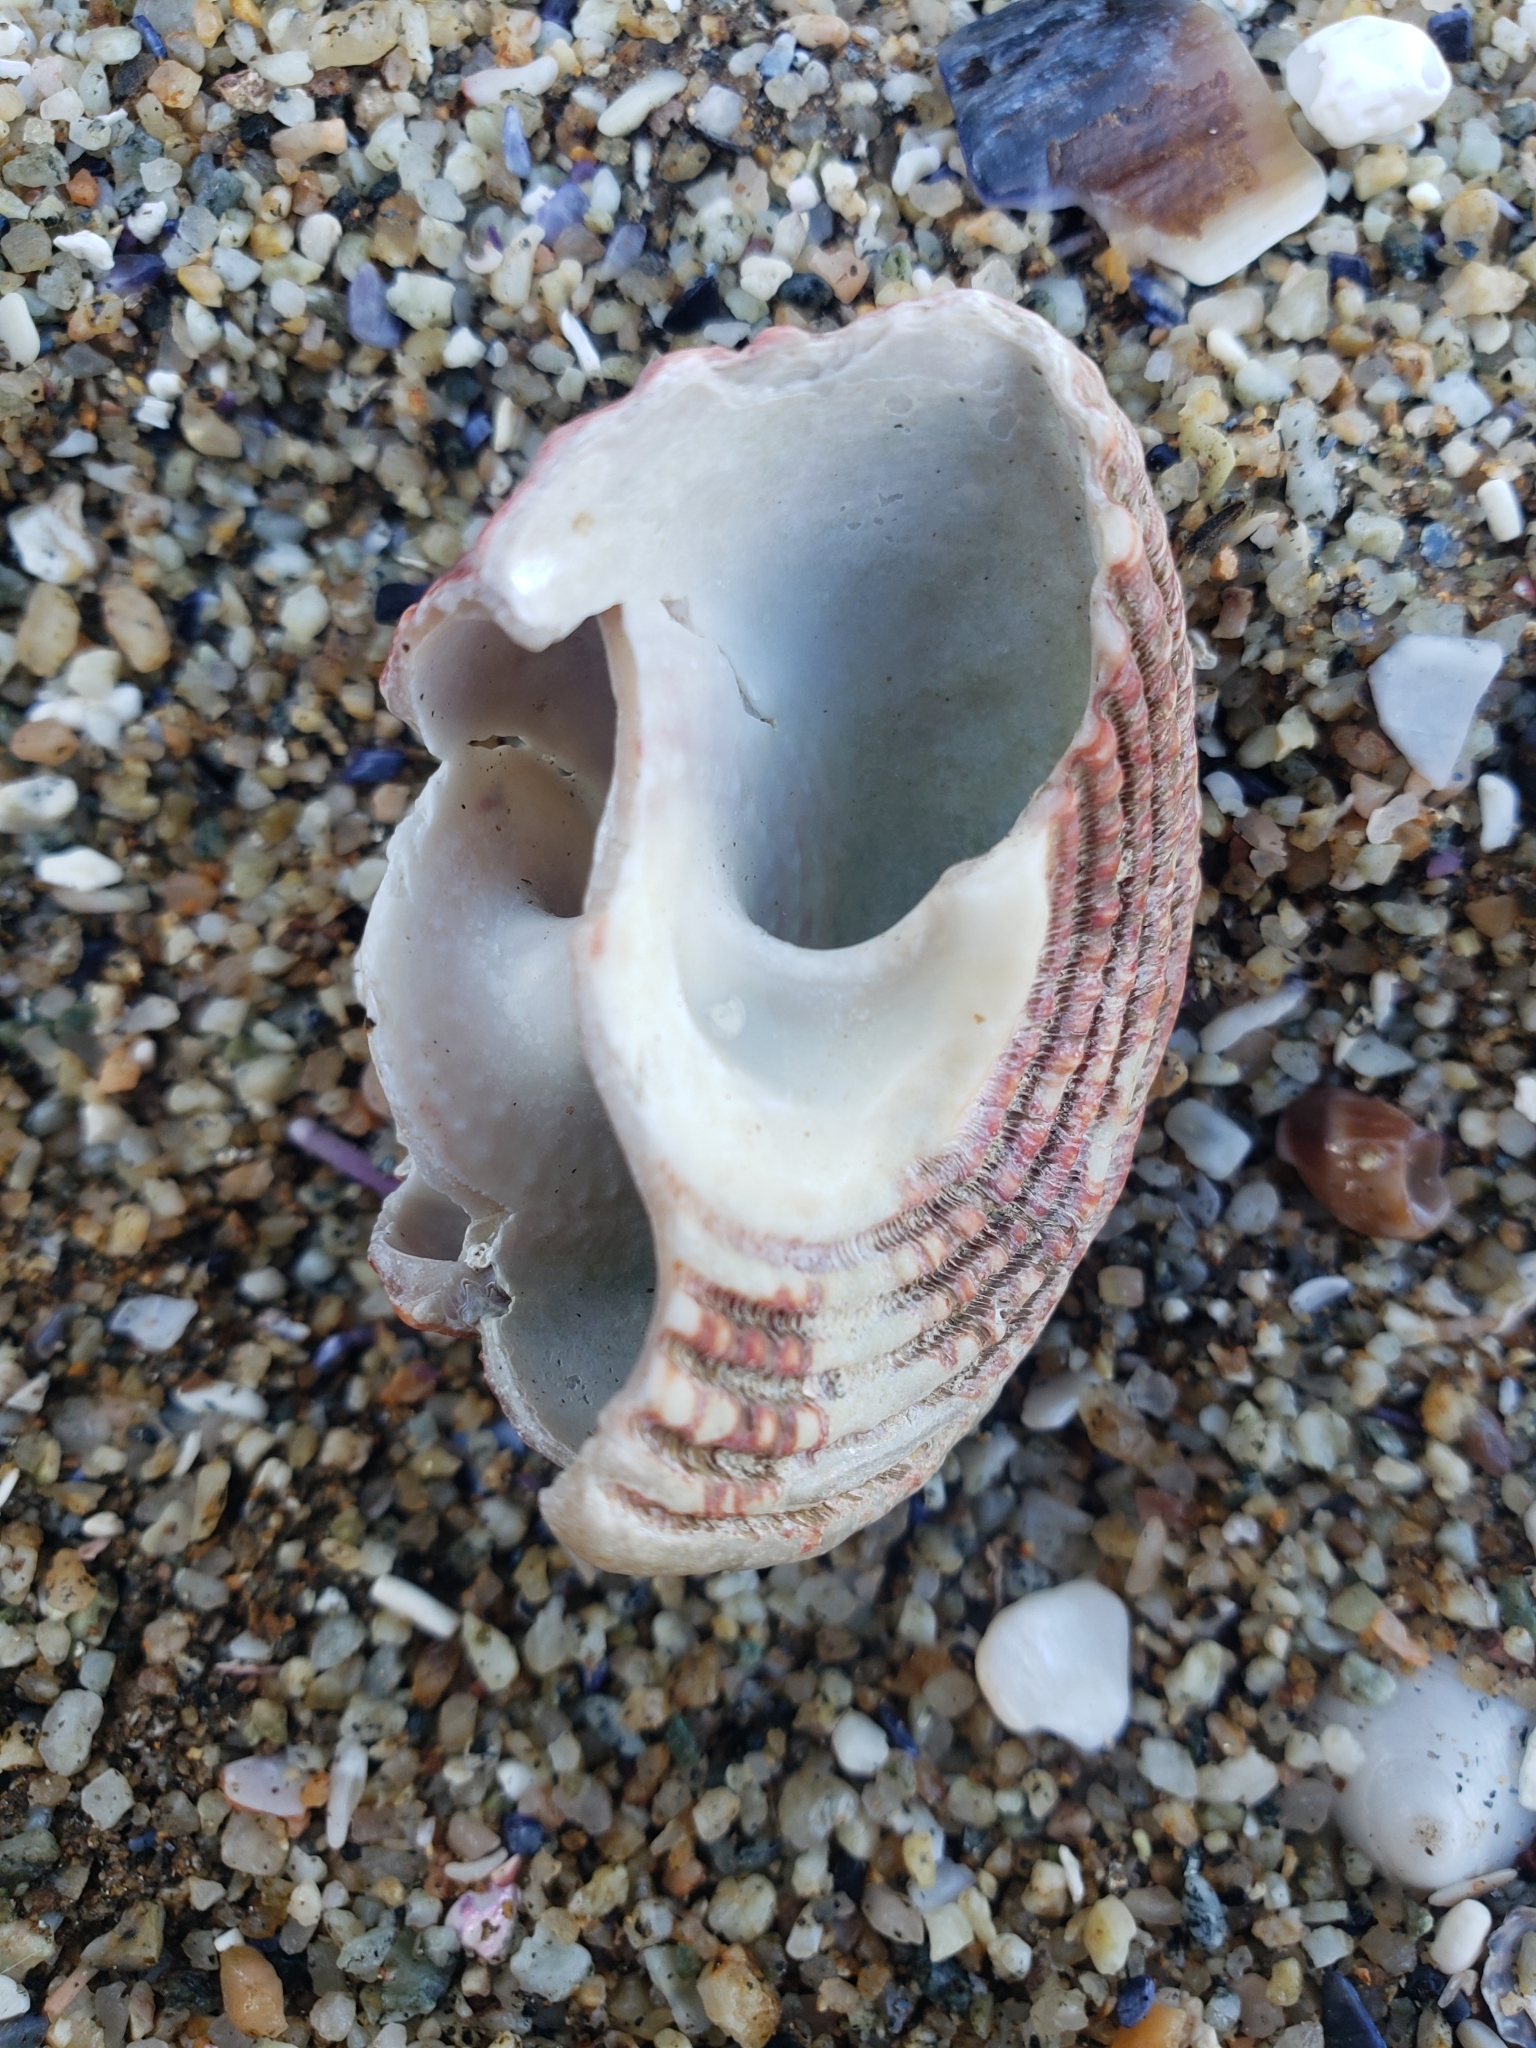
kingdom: Animalia
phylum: Mollusca
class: Gastropoda
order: Trochida
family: Turbinidae
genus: Pomaulax
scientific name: Pomaulax gibberosus
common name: Red turban
